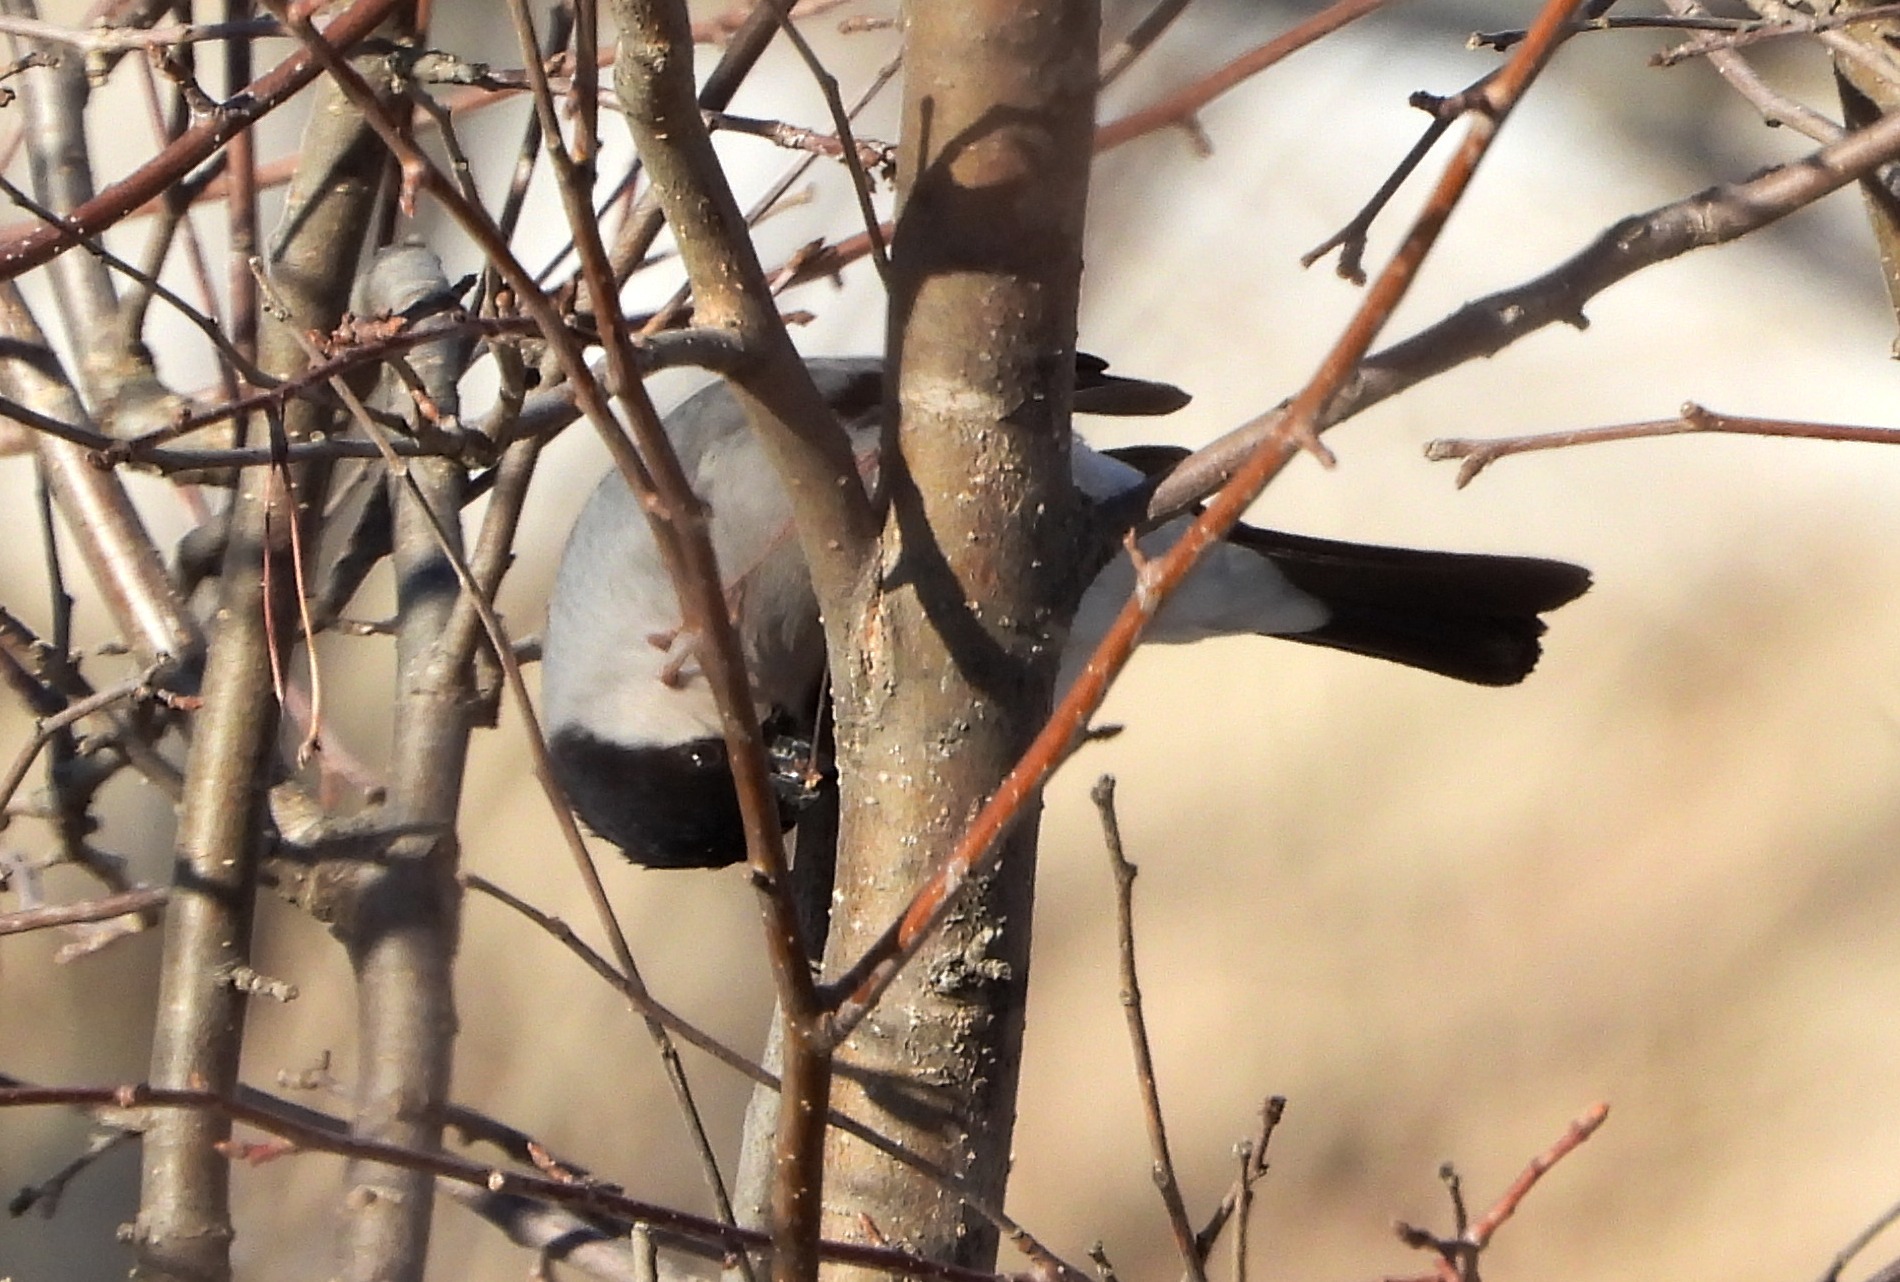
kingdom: Animalia
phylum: Chordata
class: Aves
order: Passeriformes
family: Fringillidae
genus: Pyrrhula
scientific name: Pyrrhula pyrrhula
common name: Eurasian bullfinch
